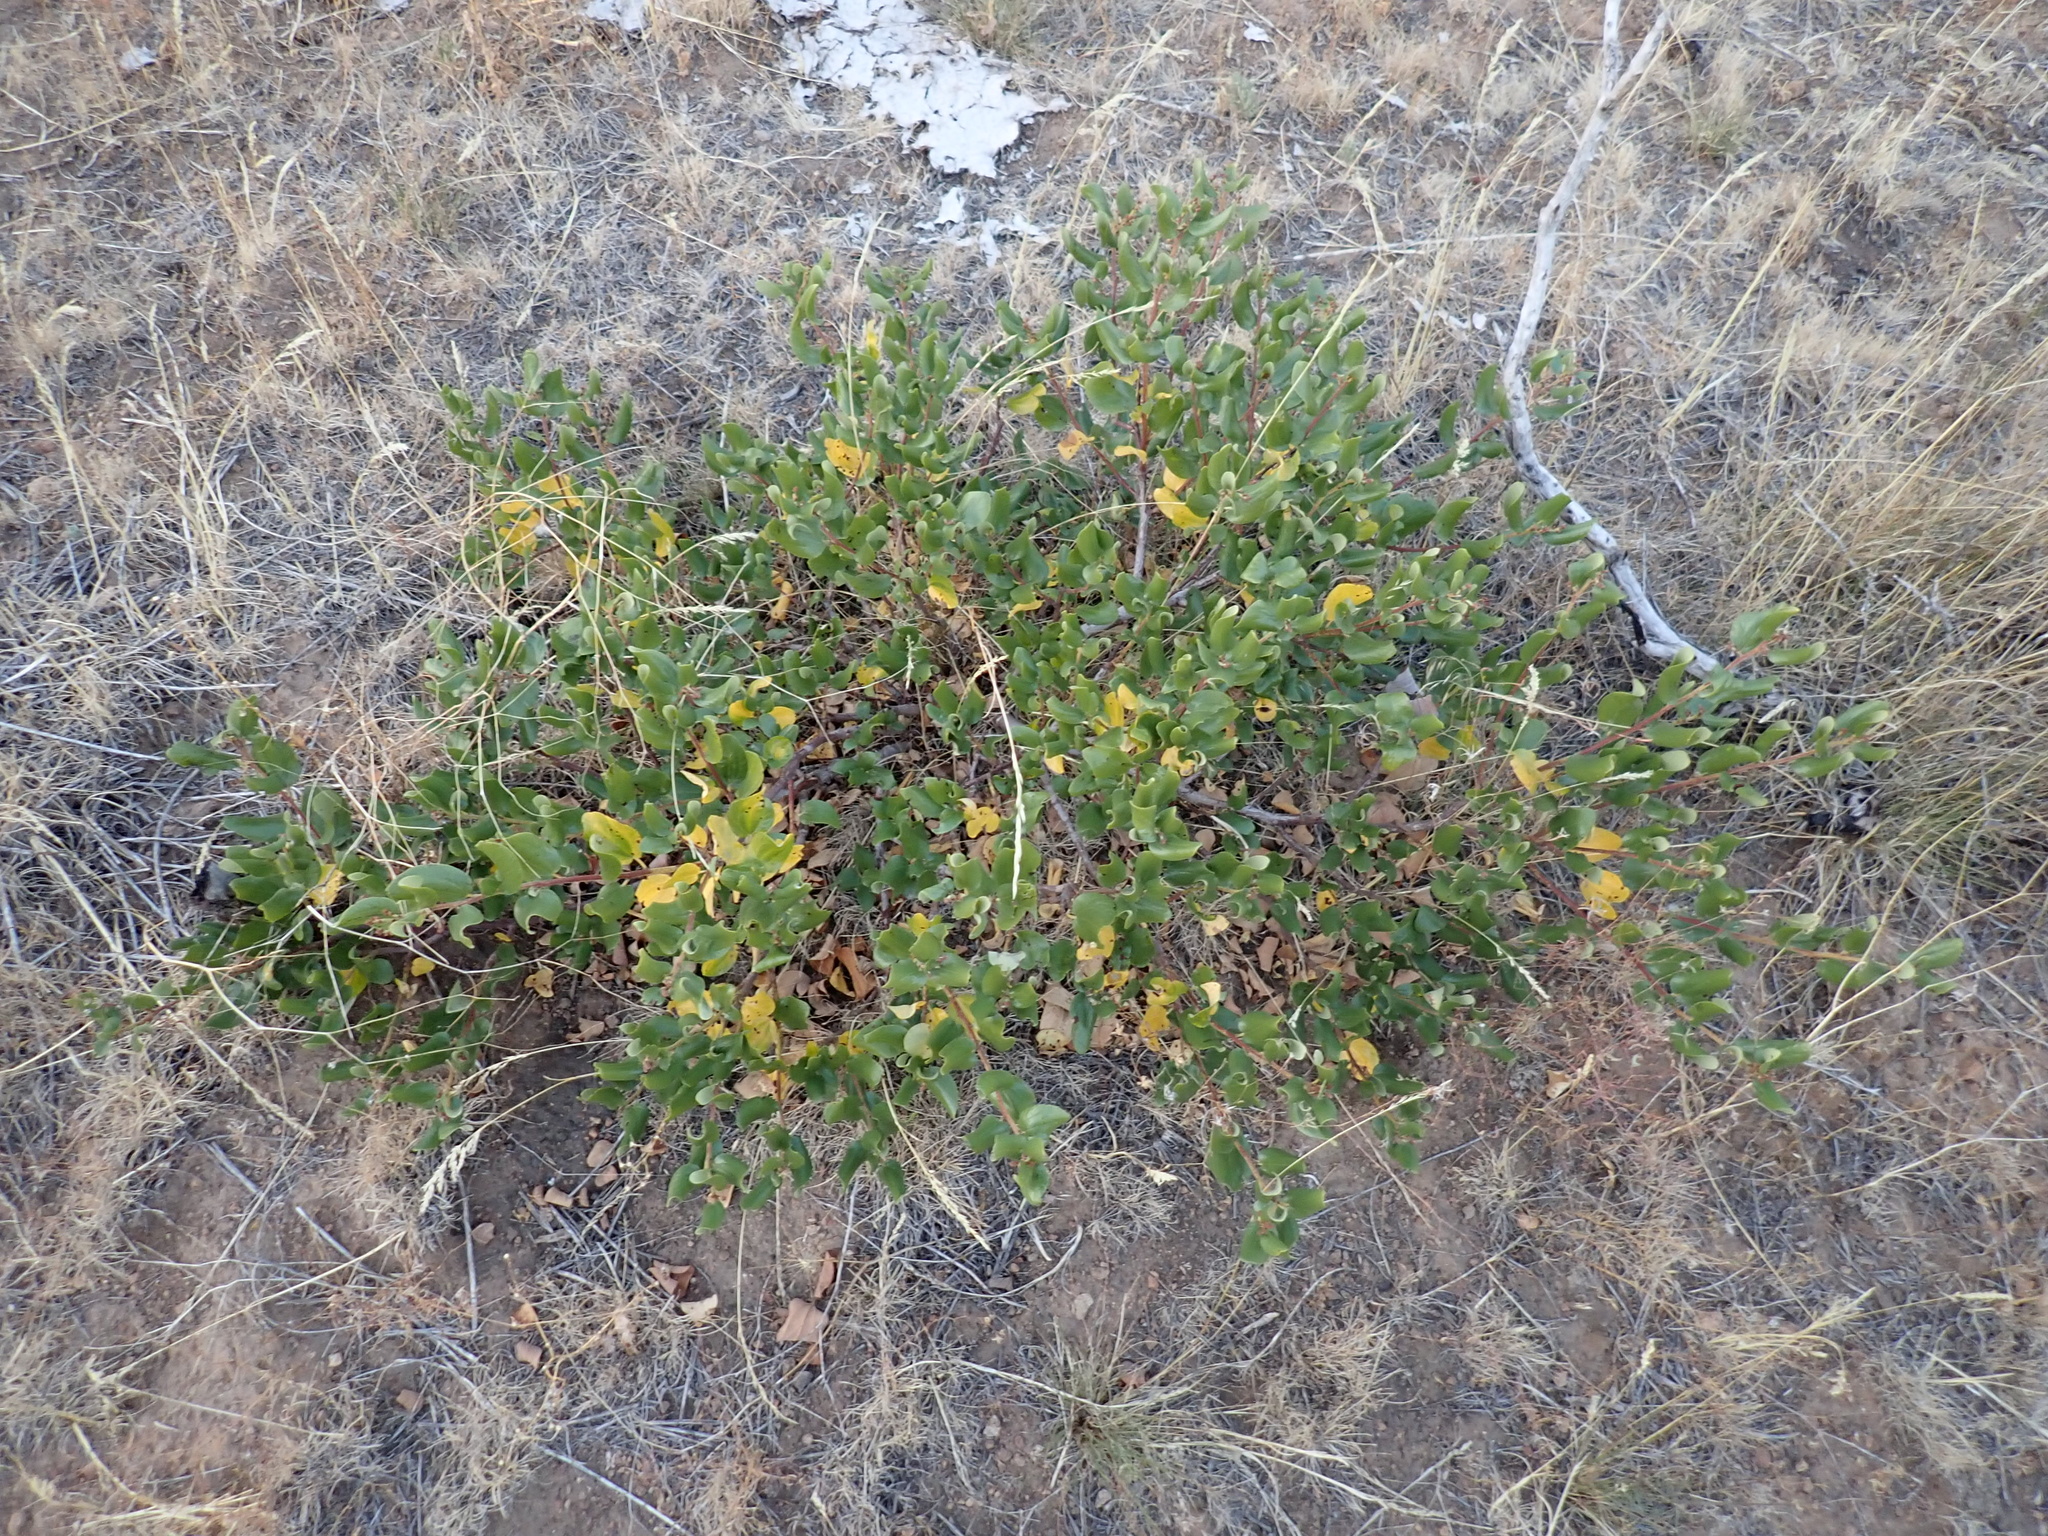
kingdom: Plantae
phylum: Tracheophyta
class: Magnoliopsida
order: Rosales
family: Rhamnaceae
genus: Ceanothus
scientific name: Ceanothus velutinus
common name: Snowbrush
